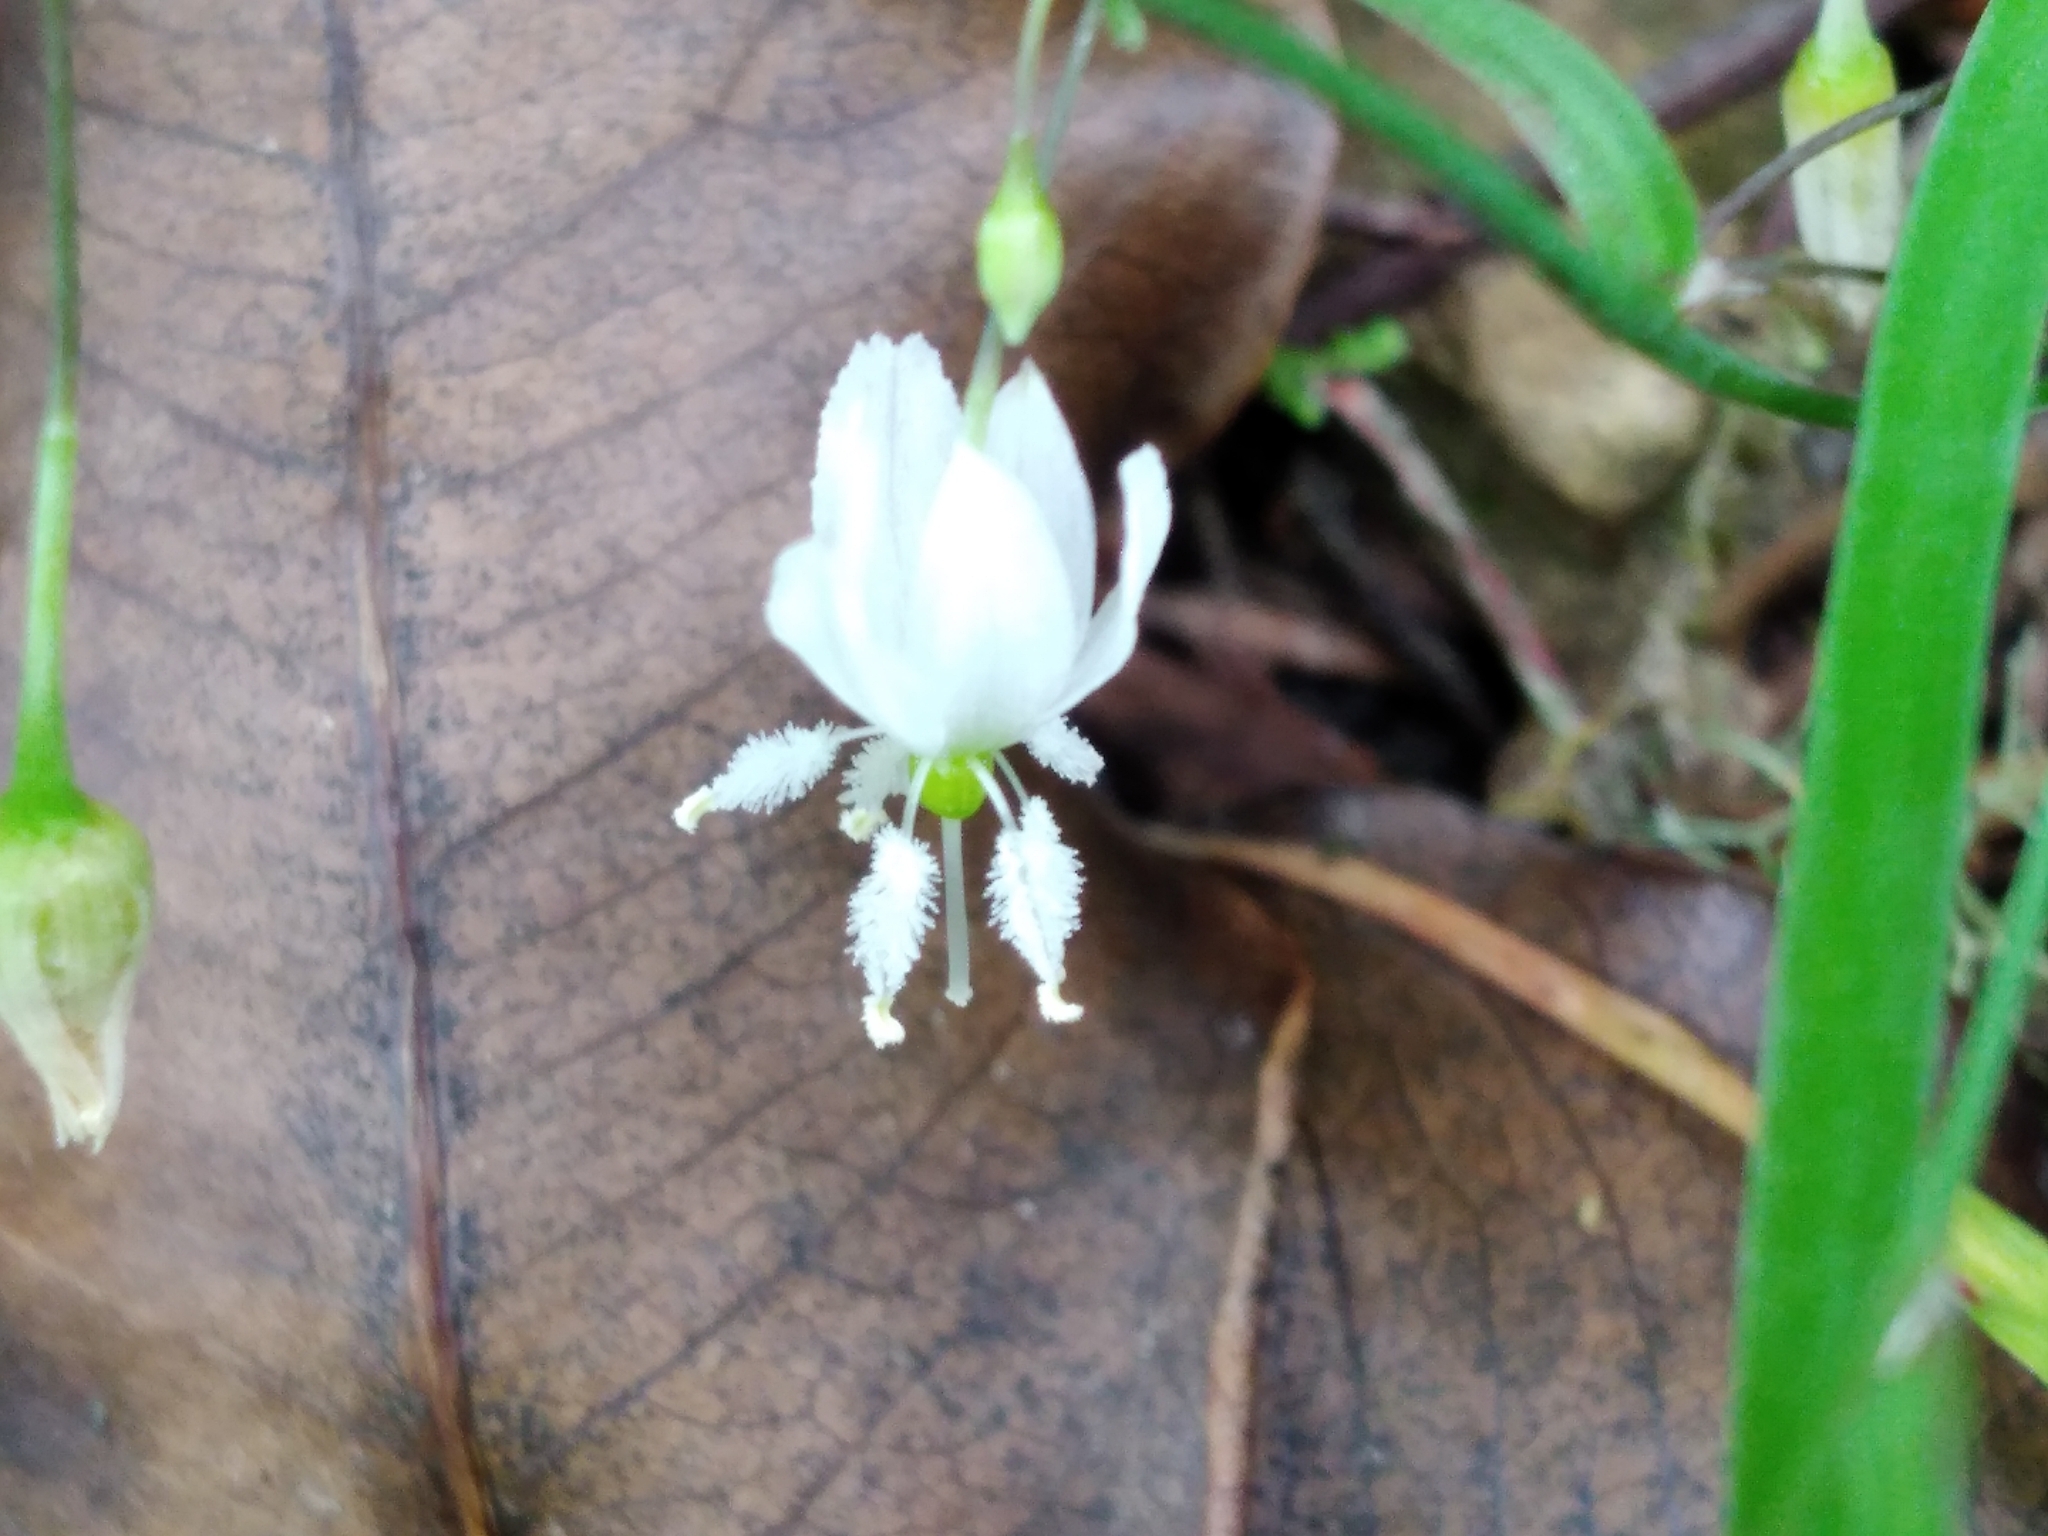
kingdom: Plantae
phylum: Tracheophyta
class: Liliopsida
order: Asparagales
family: Asparagaceae
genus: Arthropodium
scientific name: Arthropodium candidum
